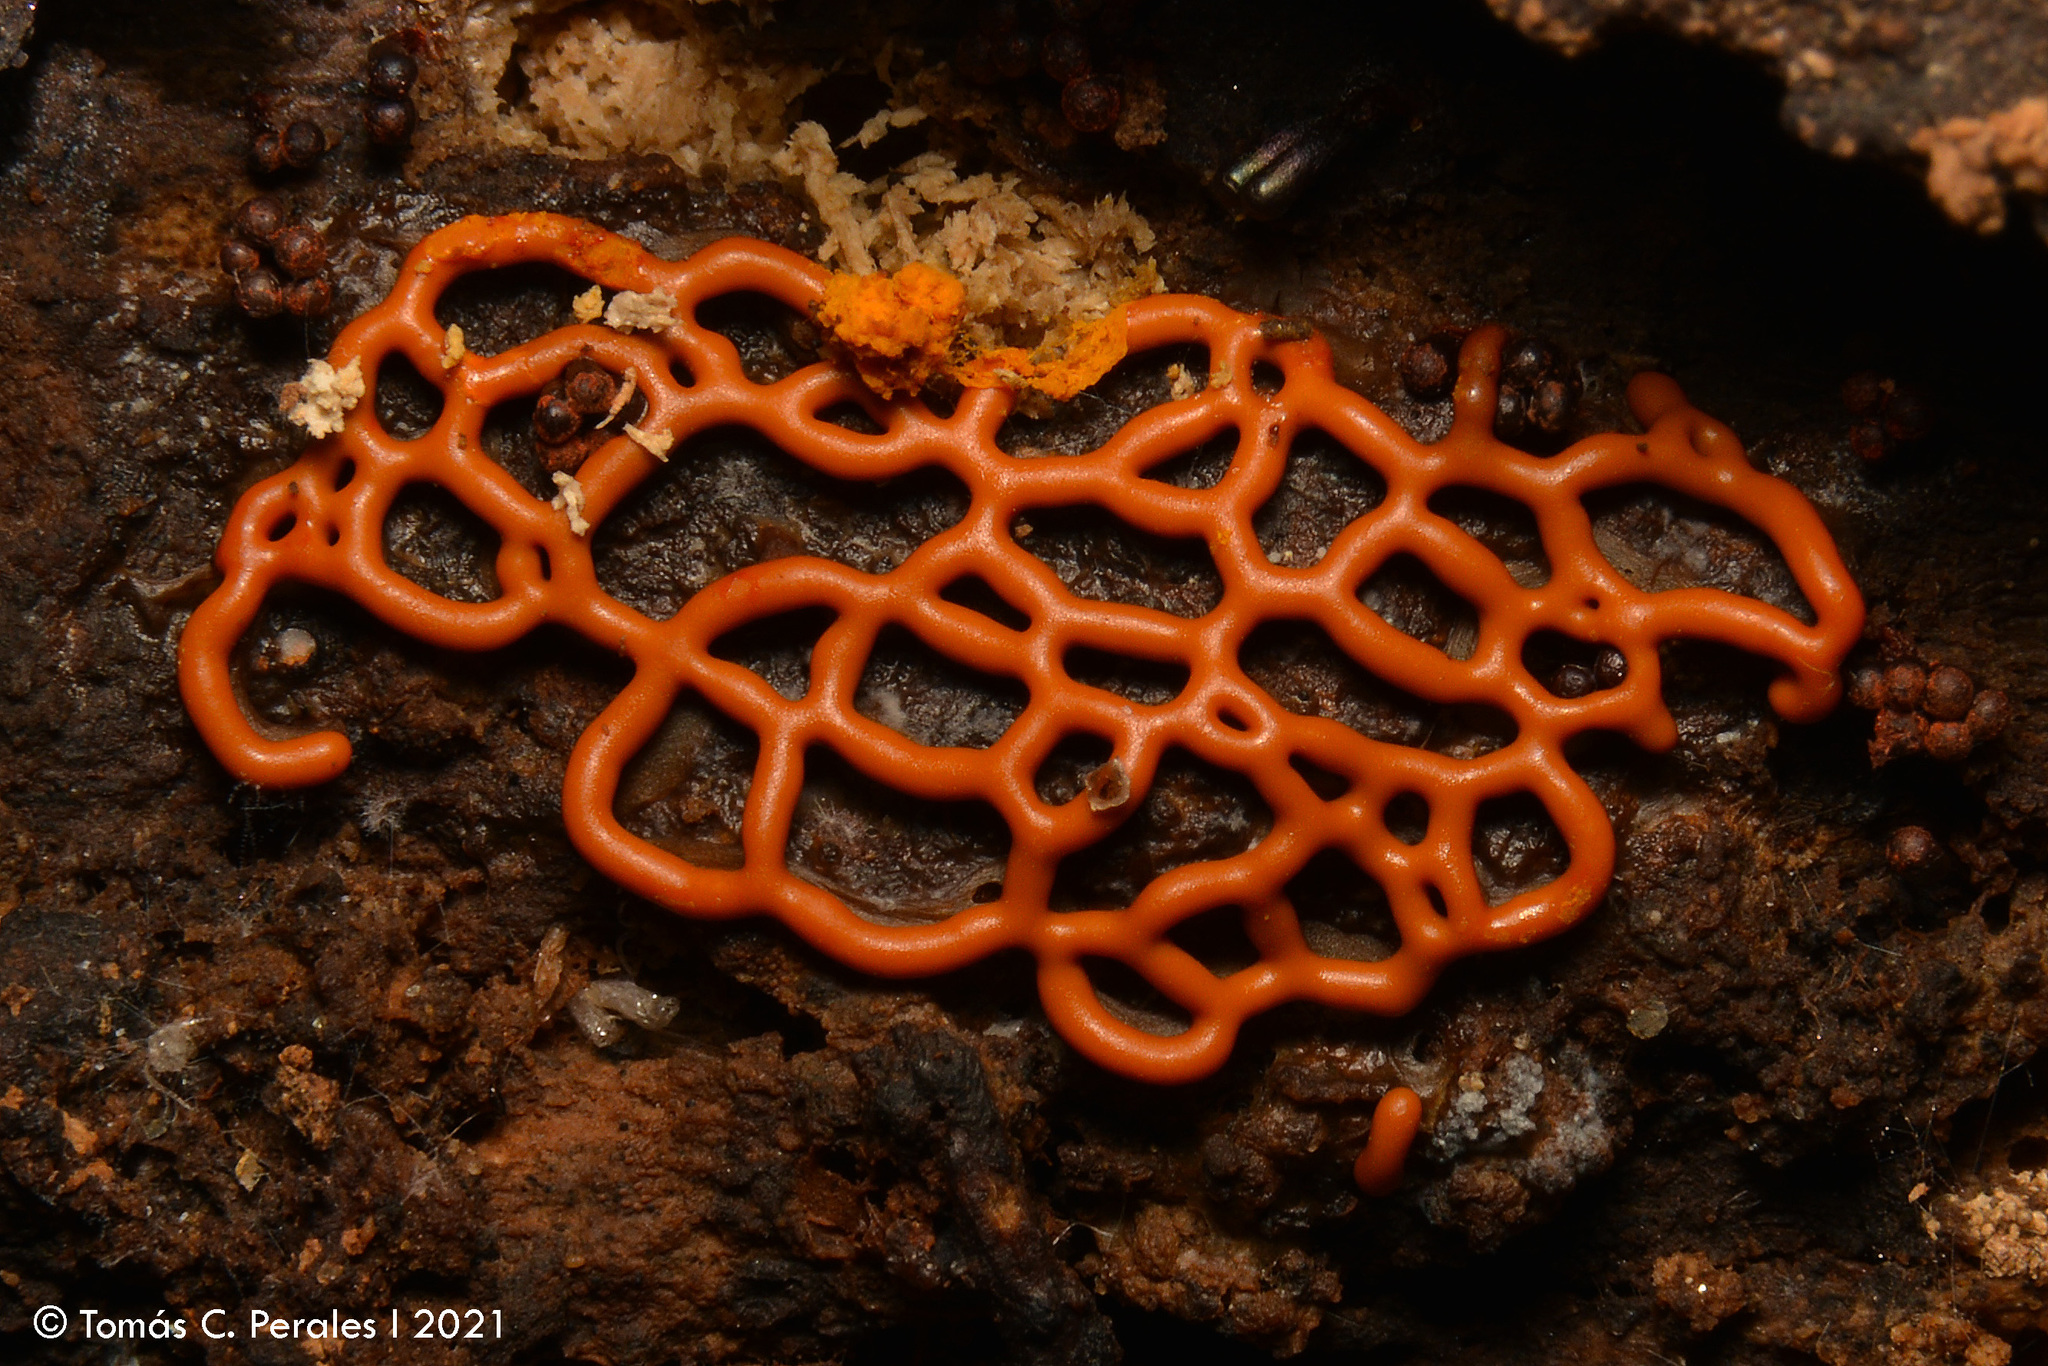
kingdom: Protozoa
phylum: Mycetozoa
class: Myxomycetes
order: Trichiales
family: Arcyriaceae
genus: Hemitrichia
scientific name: Hemitrichia serpula
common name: Pretzel slime mold
